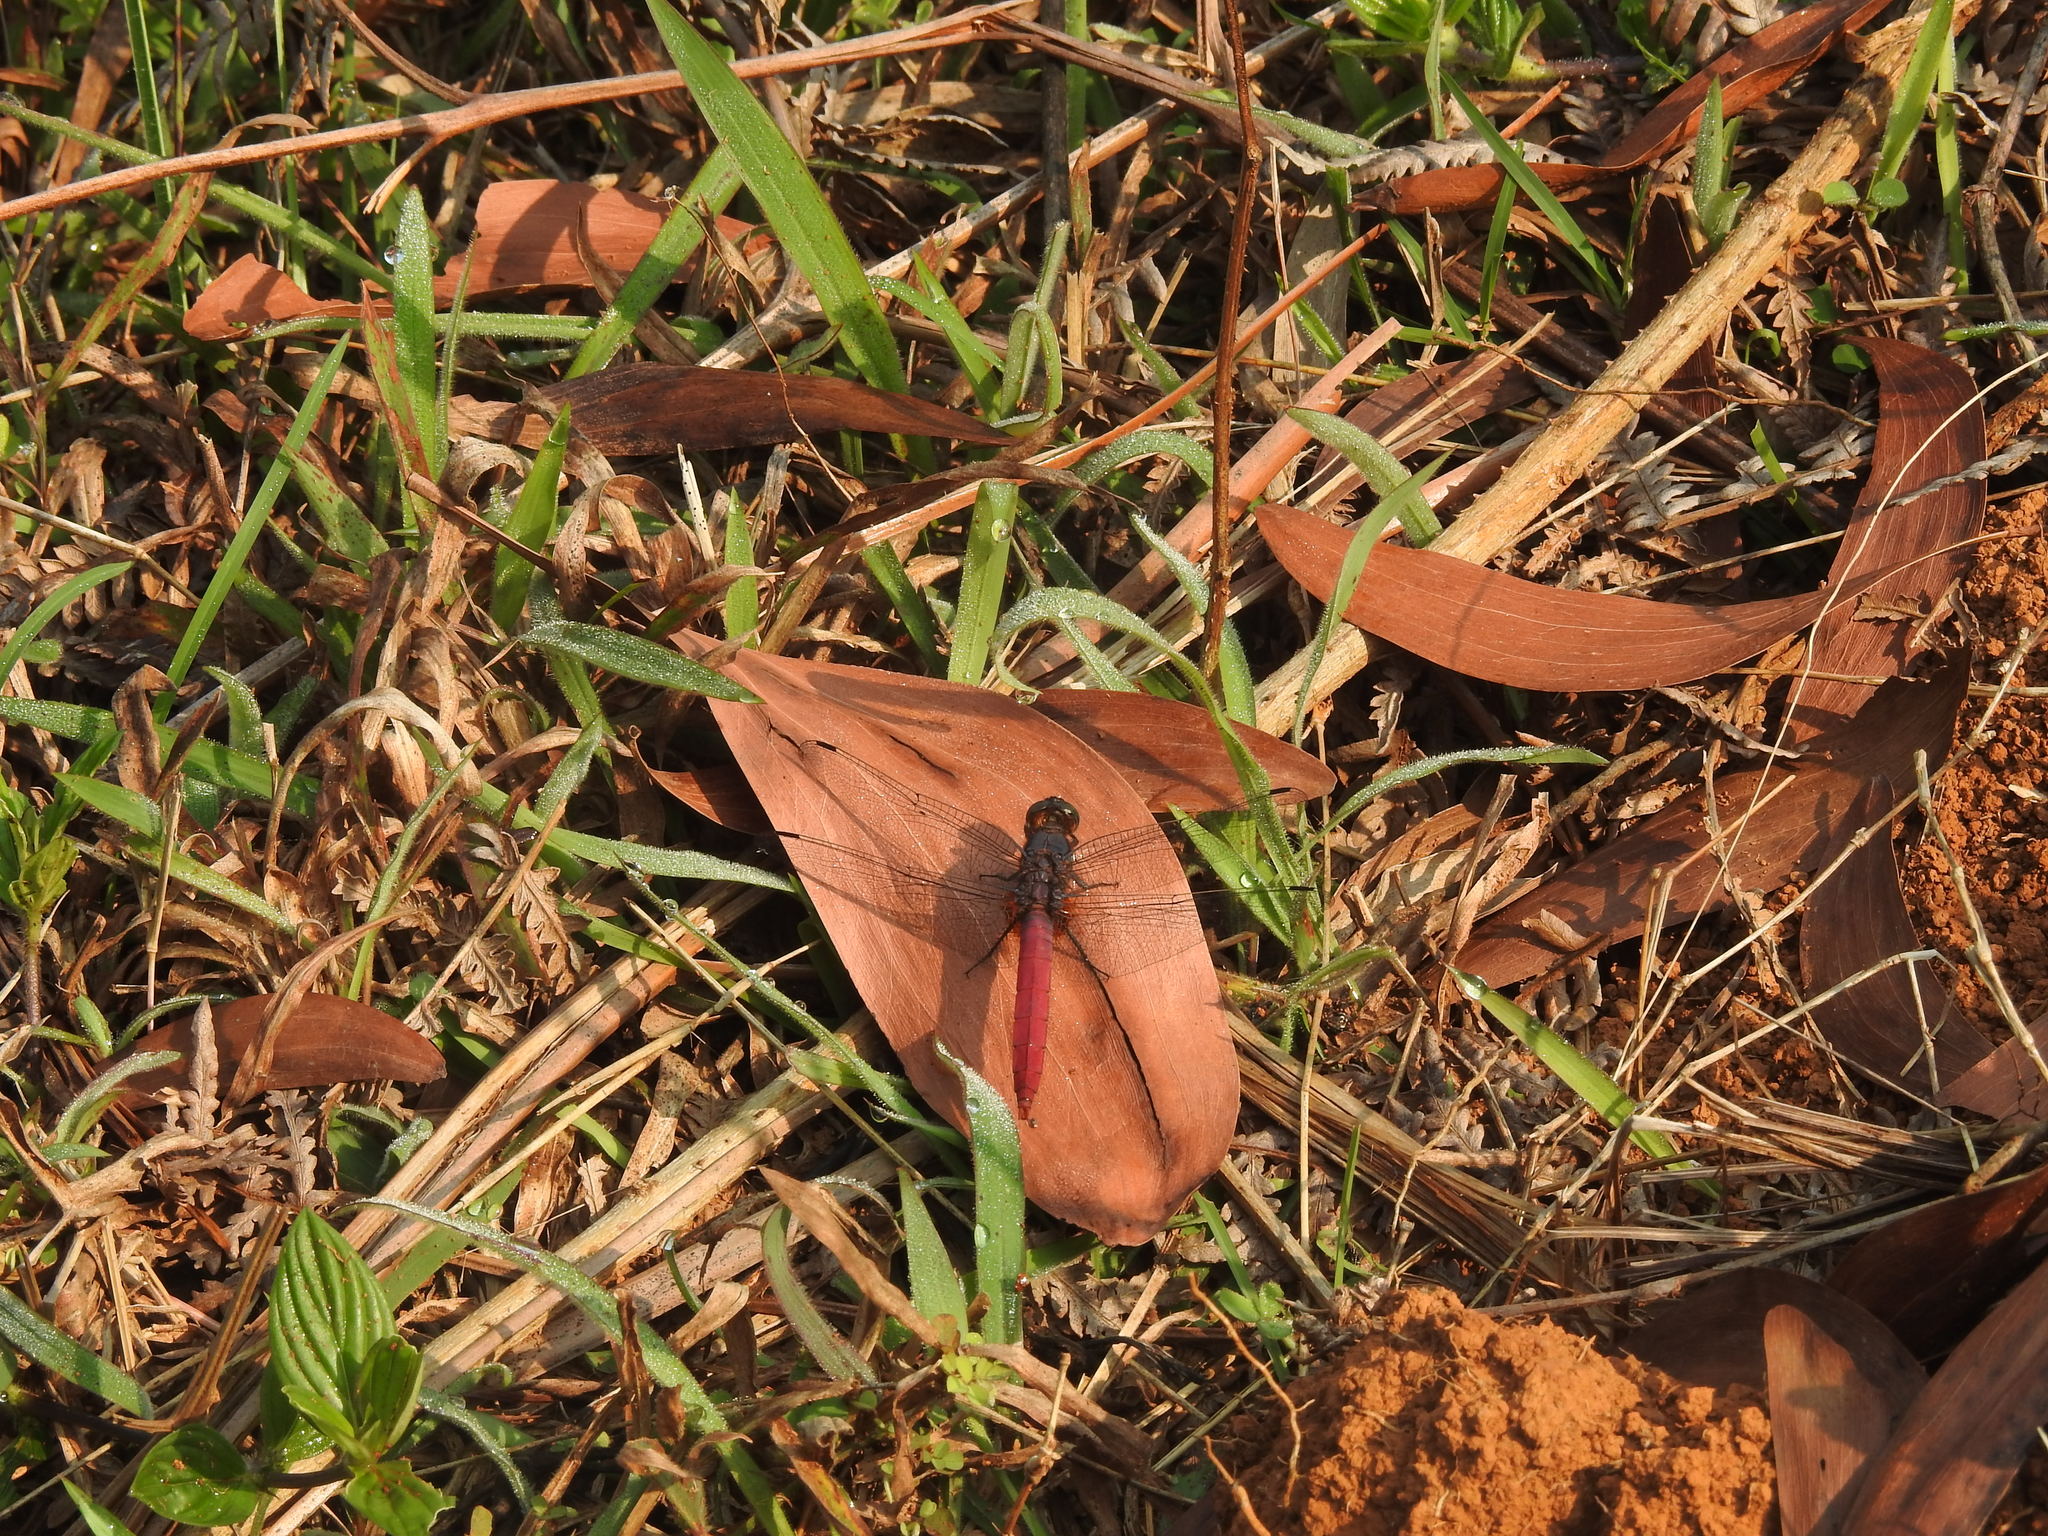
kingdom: Animalia
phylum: Arthropoda
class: Insecta
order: Odonata
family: Libellulidae
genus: Orthetrum
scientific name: Orthetrum pruinosum
